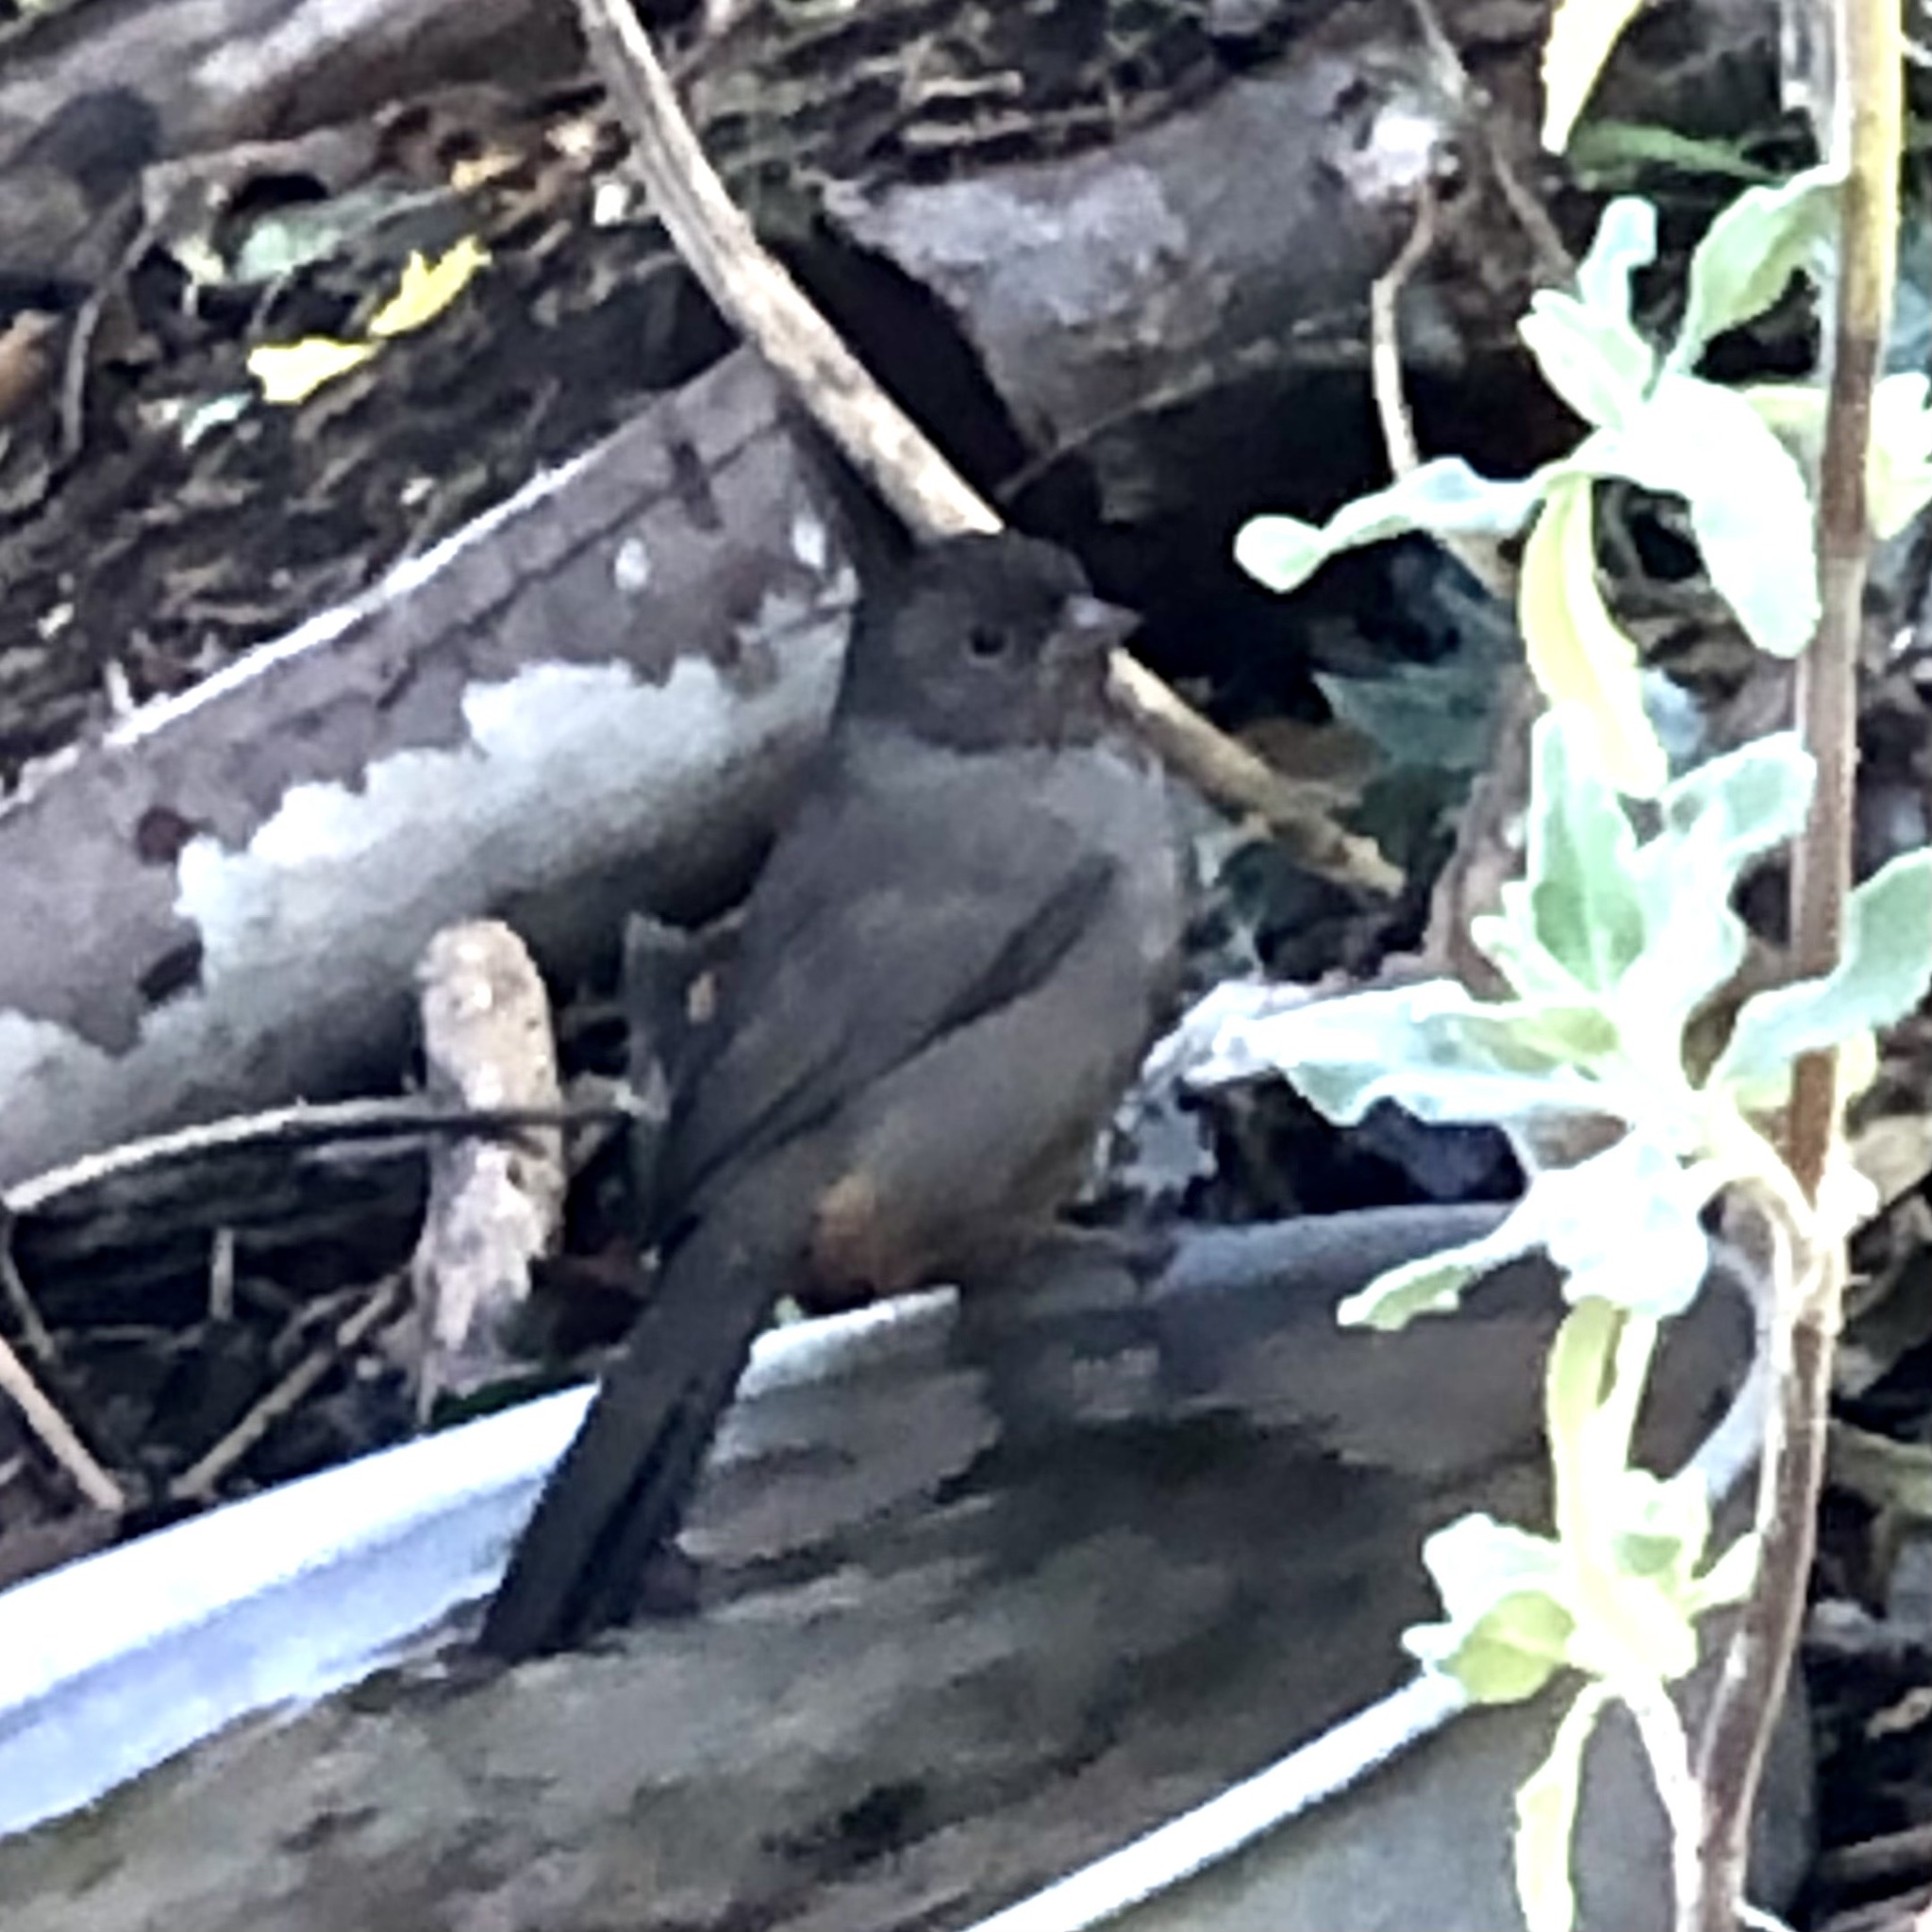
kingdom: Animalia
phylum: Chordata
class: Aves
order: Passeriformes
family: Passerellidae
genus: Melozone
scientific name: Melozone crissalis
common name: California towhee
